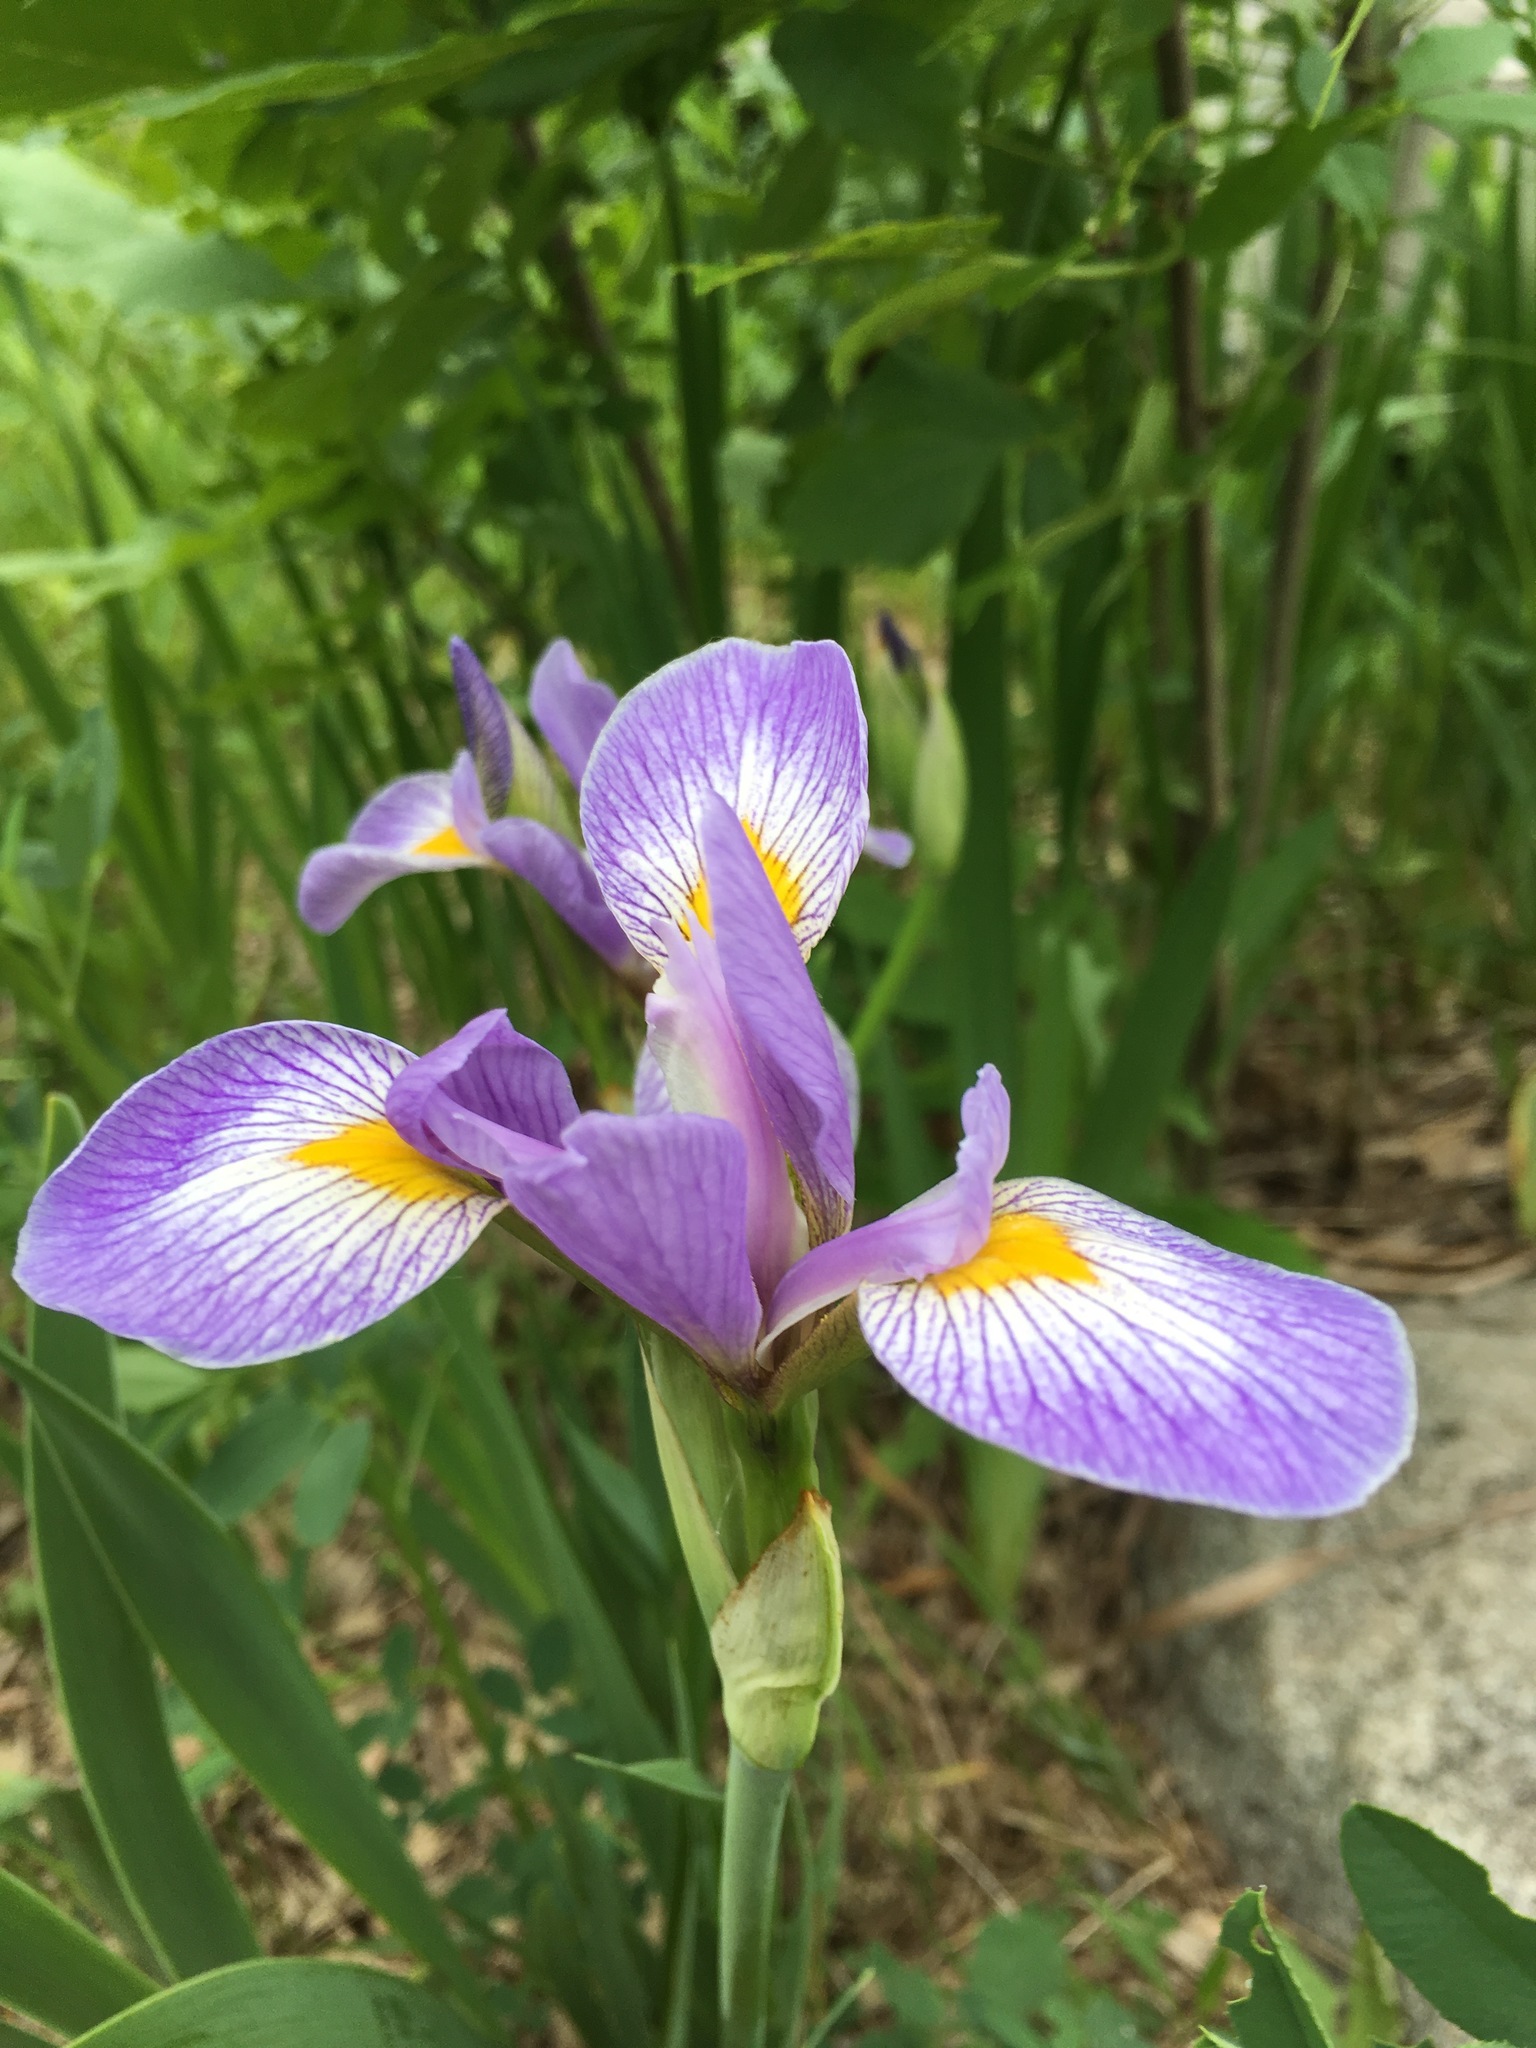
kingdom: Plantae
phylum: Tracheophyta
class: Liliopsida
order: Asparagales
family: Iridaceae
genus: Iris
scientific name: Iris virginica
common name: Southern blue flag
